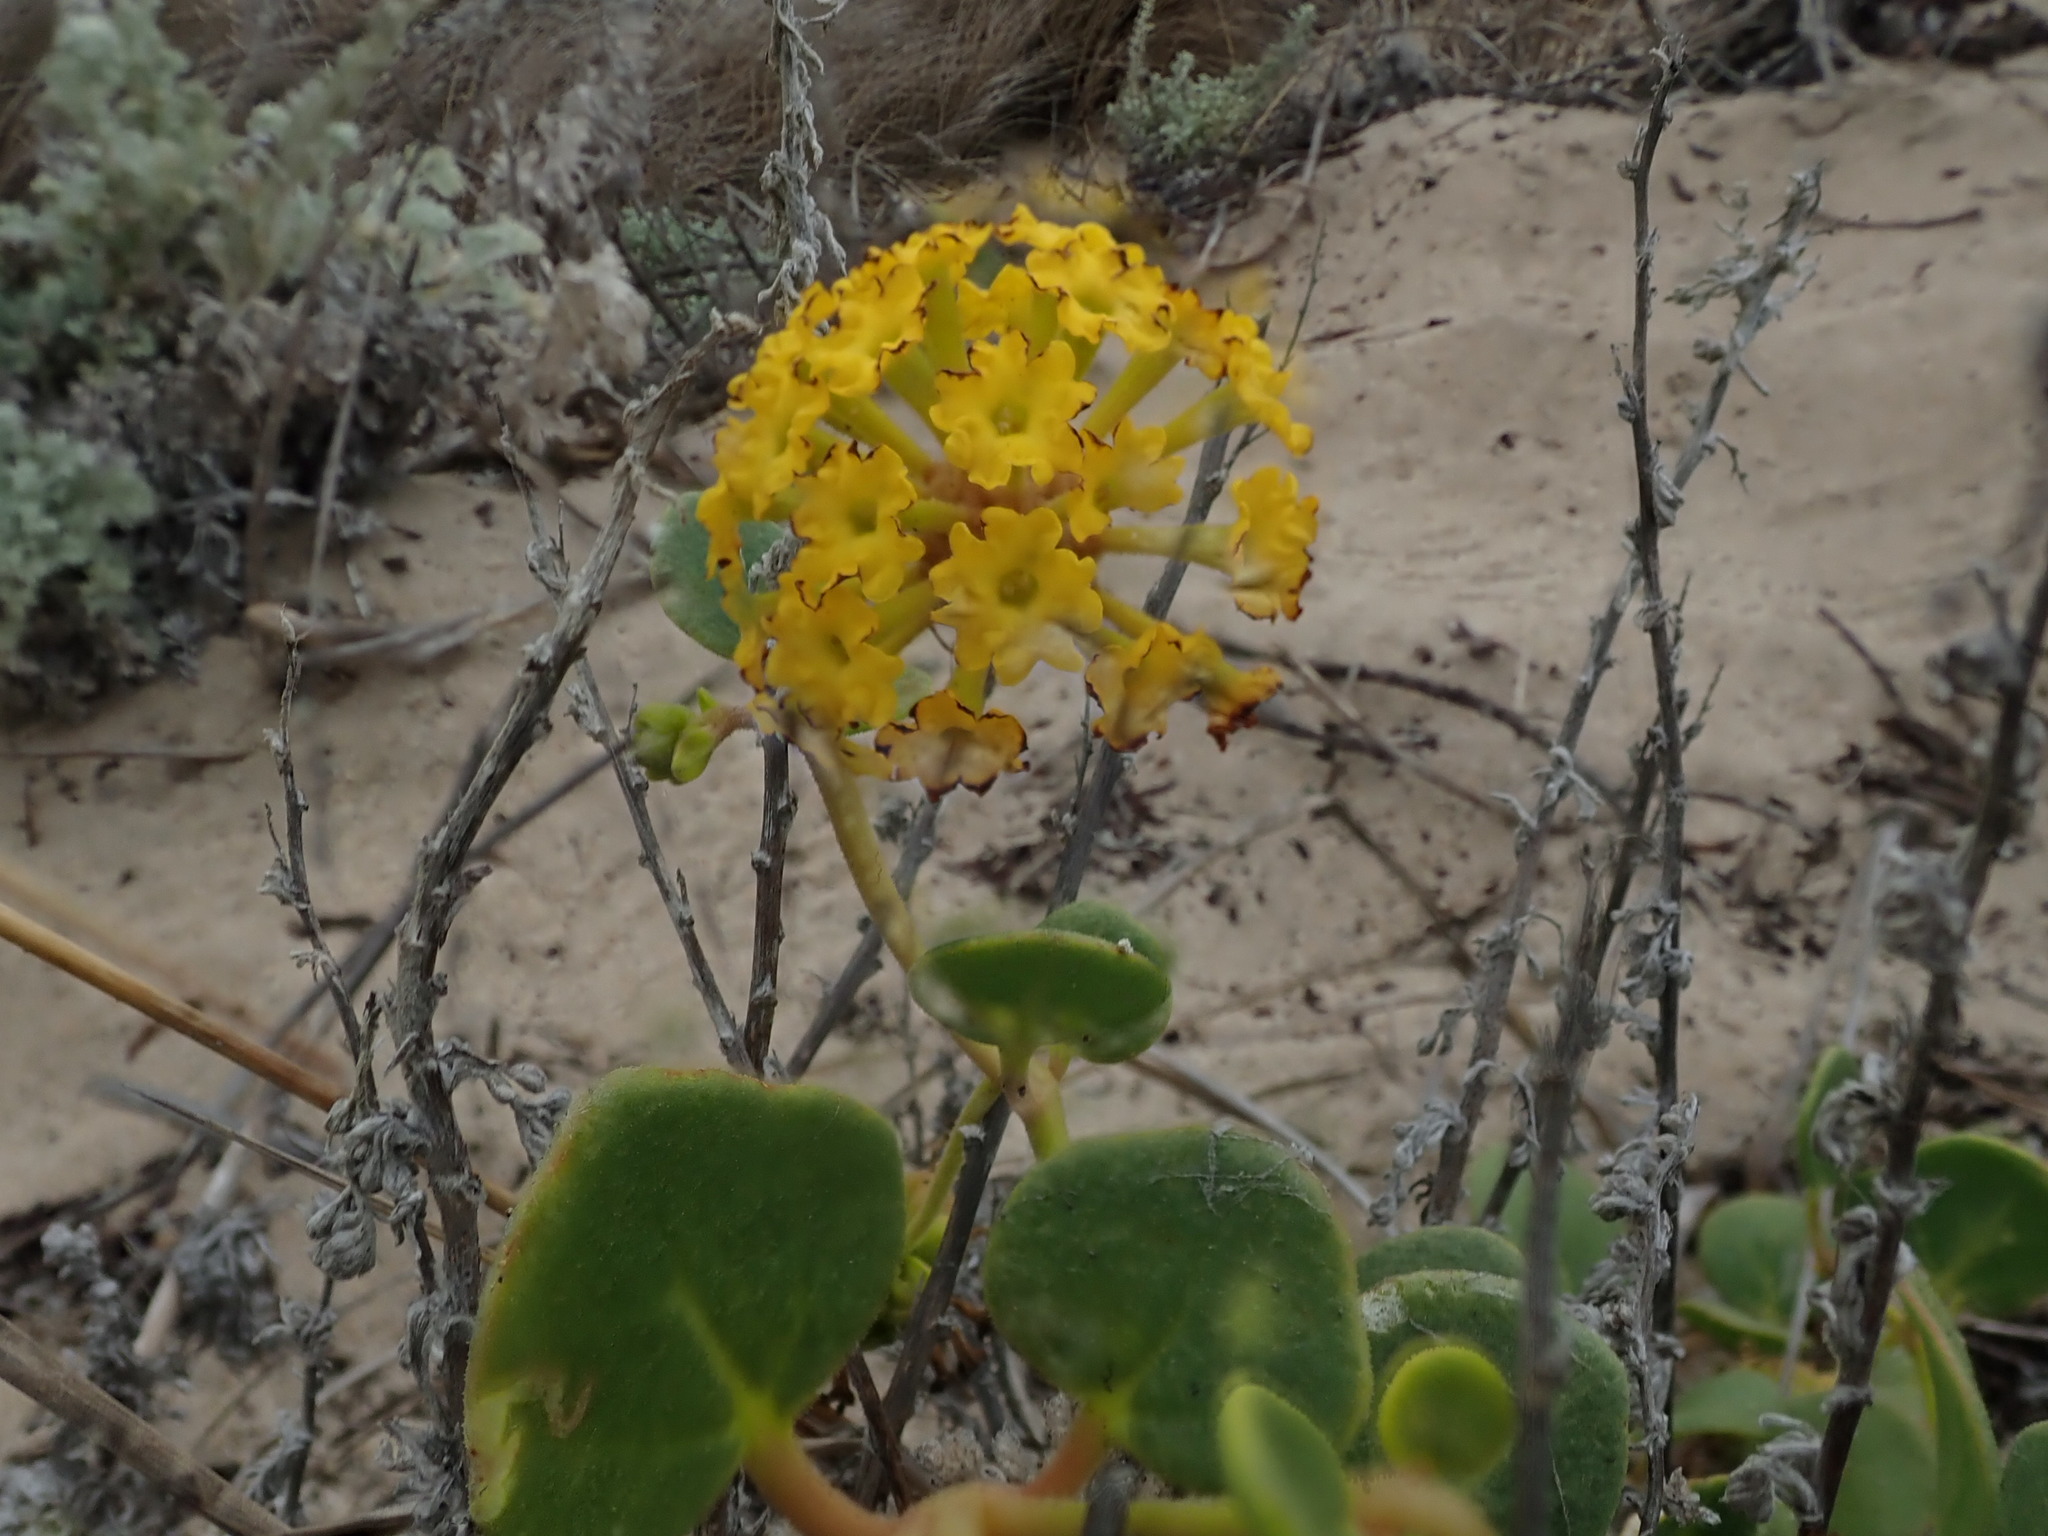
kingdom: Plantae
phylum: Tracheophyta
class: Magnoliopsida
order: Caryophyllales
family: Nyctaginaceae
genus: Abronia
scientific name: Abronia latifolia
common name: Yellow sand-verbena
